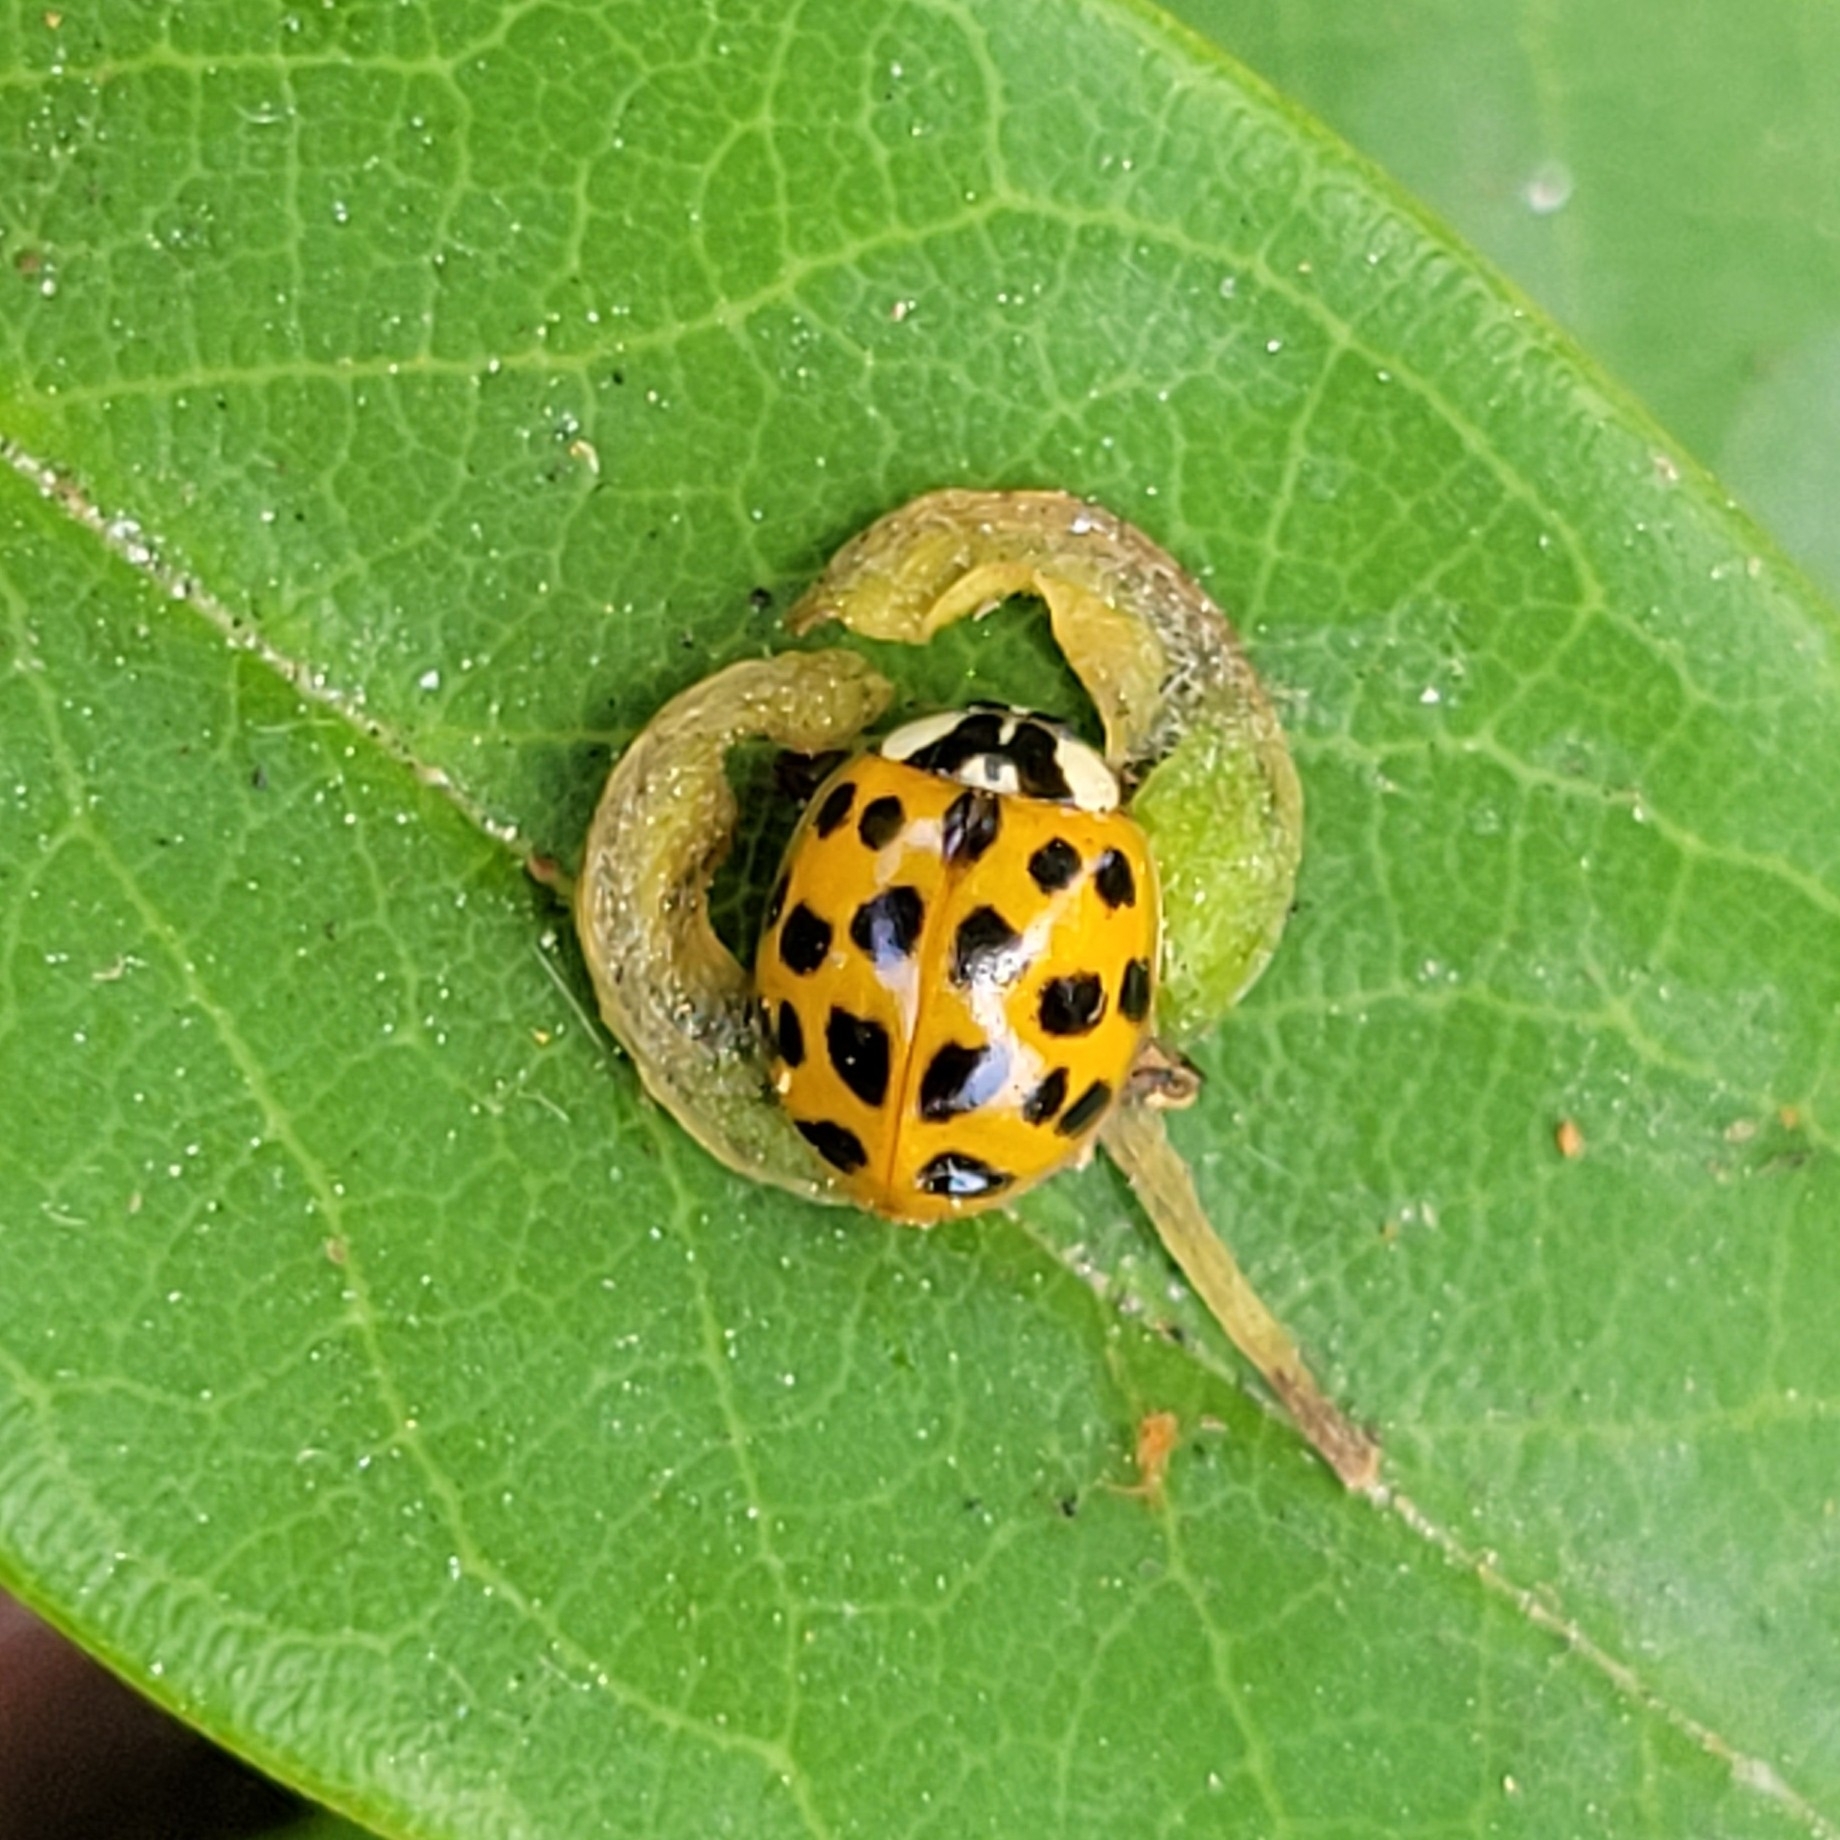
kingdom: Animalia
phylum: Arthropoda
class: Insecta
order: Coleoptera
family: Coccinellidae
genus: Harmonia
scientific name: Harmonia axyridis
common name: Harlequin ladybird
